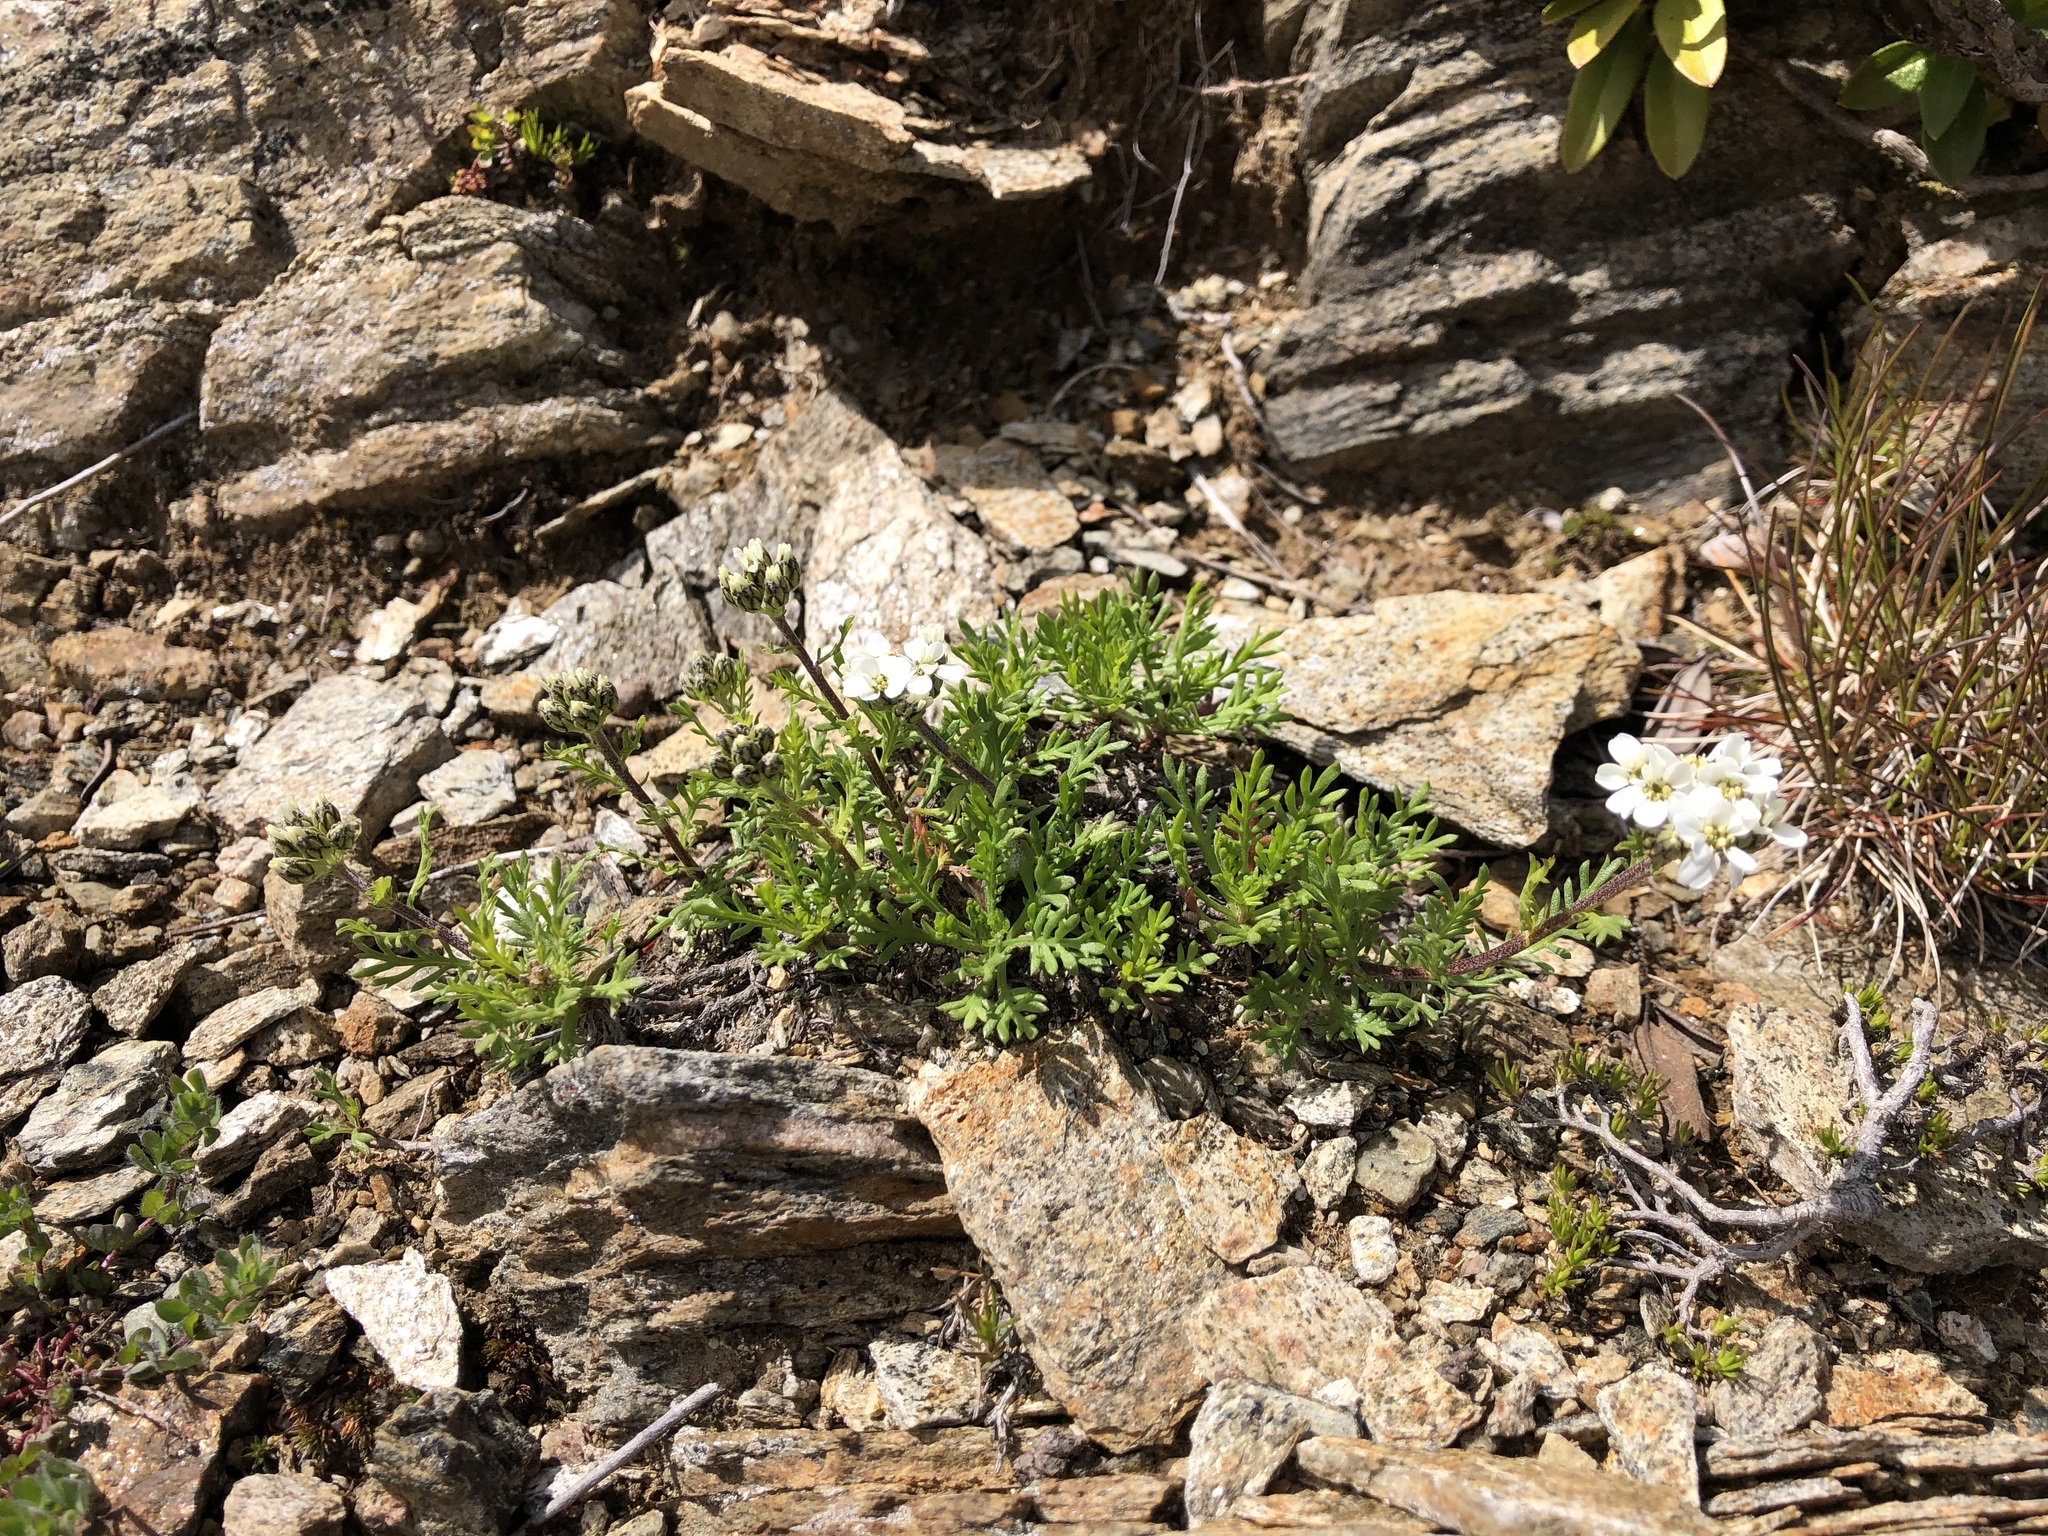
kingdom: Plantae
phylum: Tracheophyta
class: Magnoliopsida
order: Asterales
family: Asteraceae
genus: Achillea
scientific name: Achillea erba-rotta
